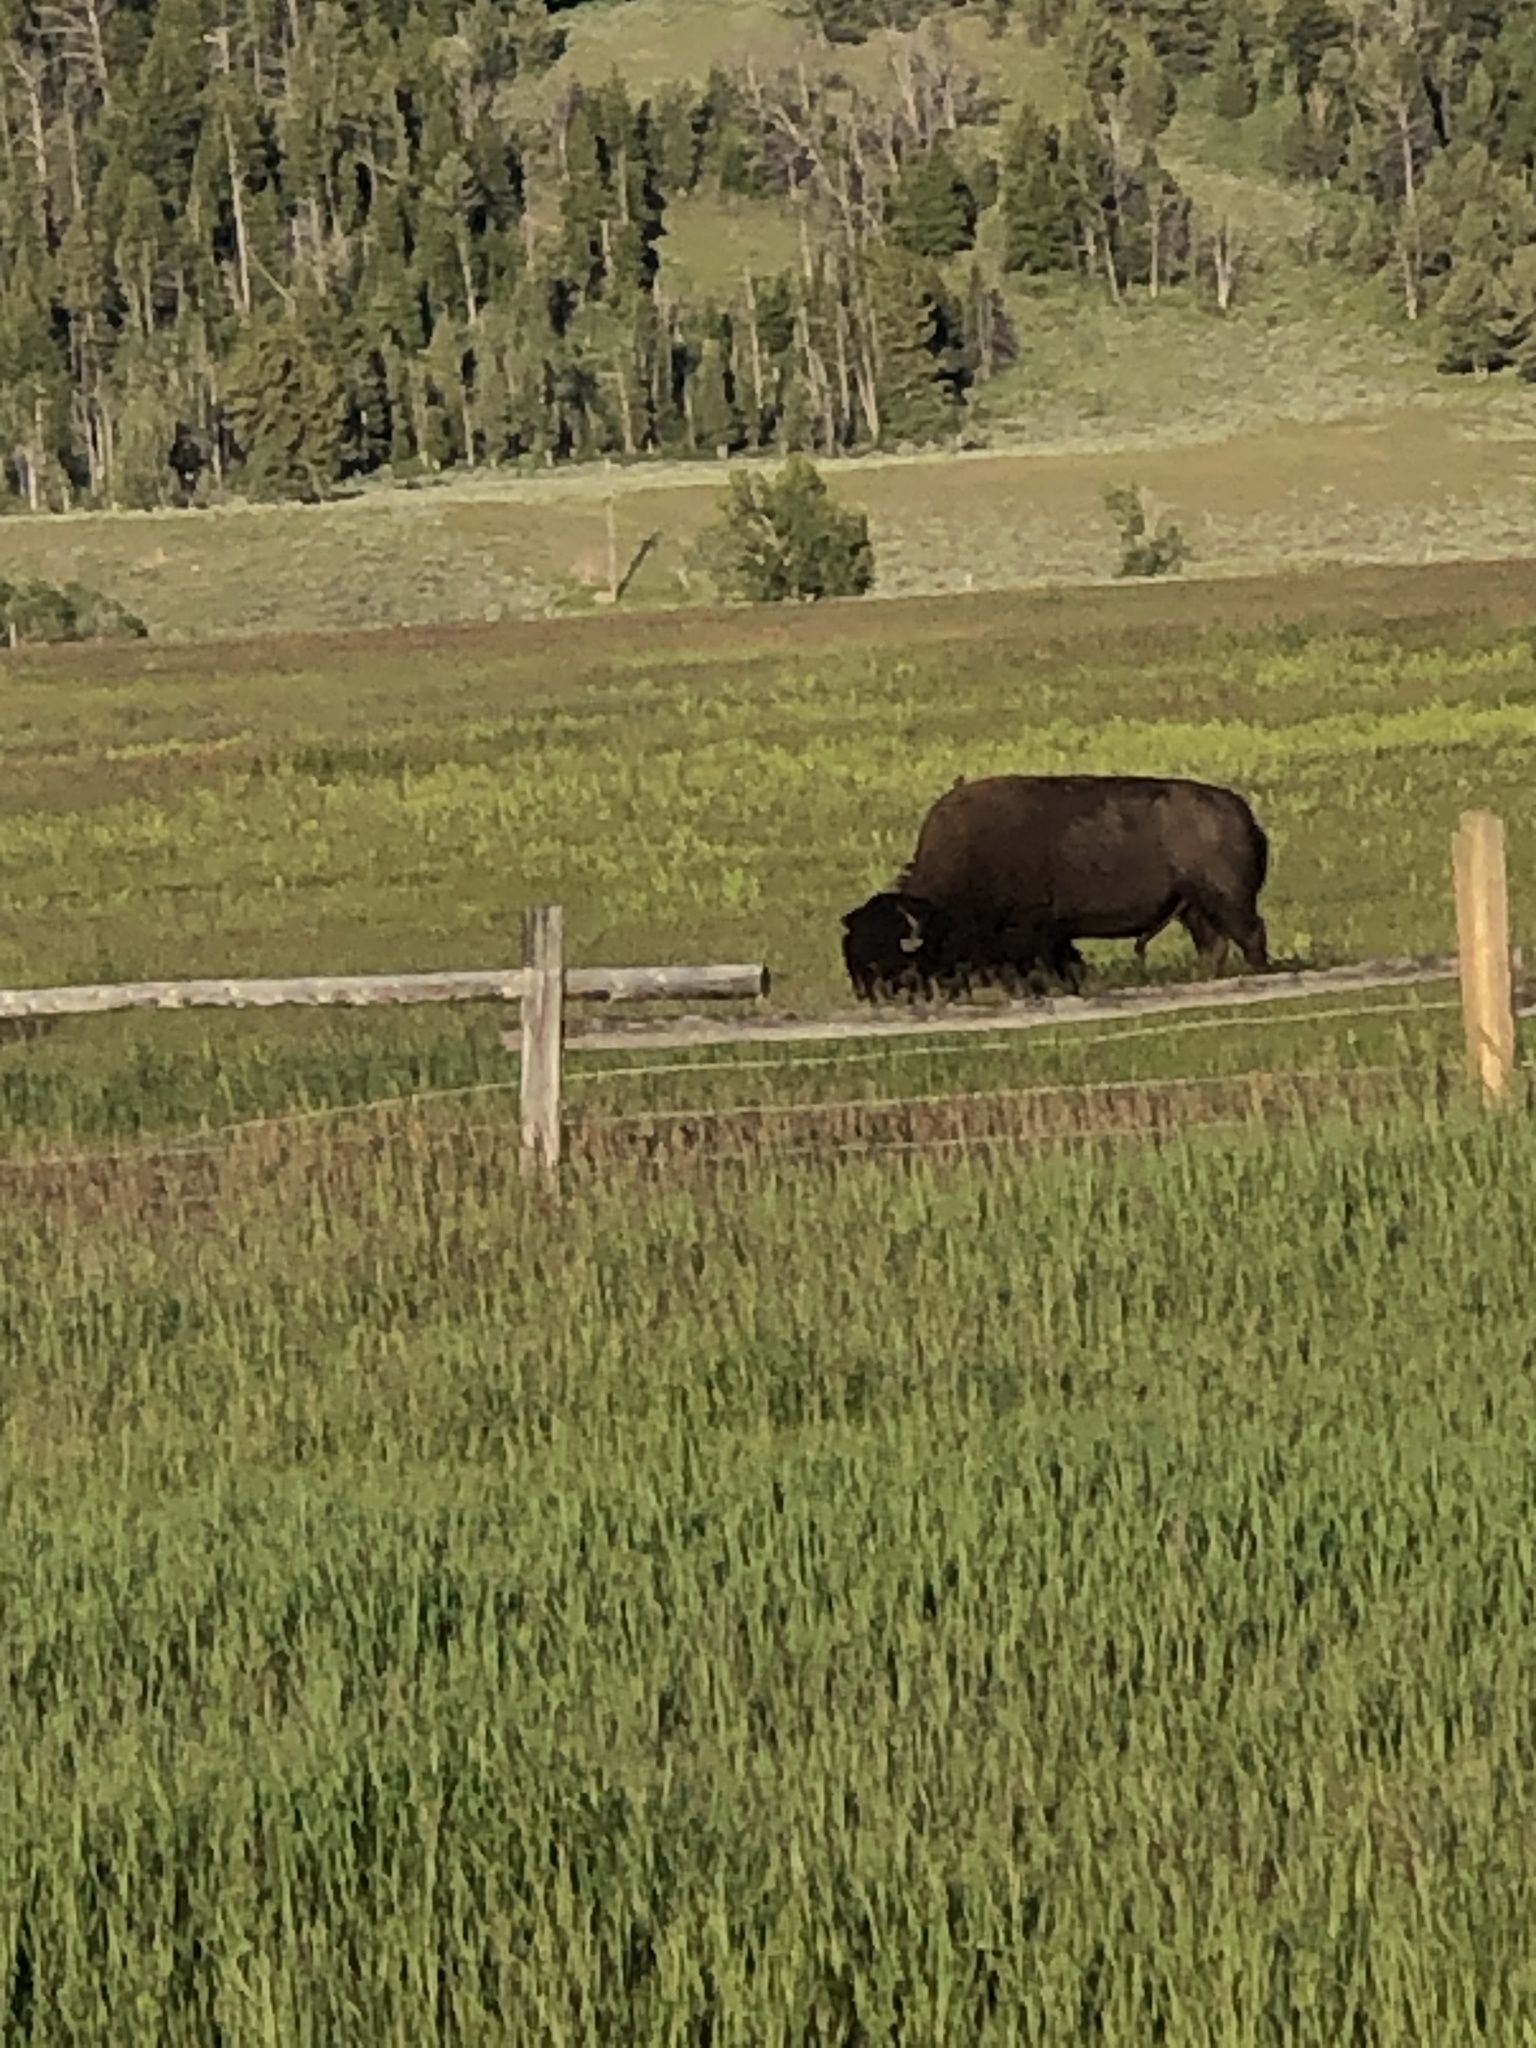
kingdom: Animalia
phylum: Chordata
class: Mammalia
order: Artiodactyla
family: Bovidae
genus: Bison
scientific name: Bison bison
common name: American bison
